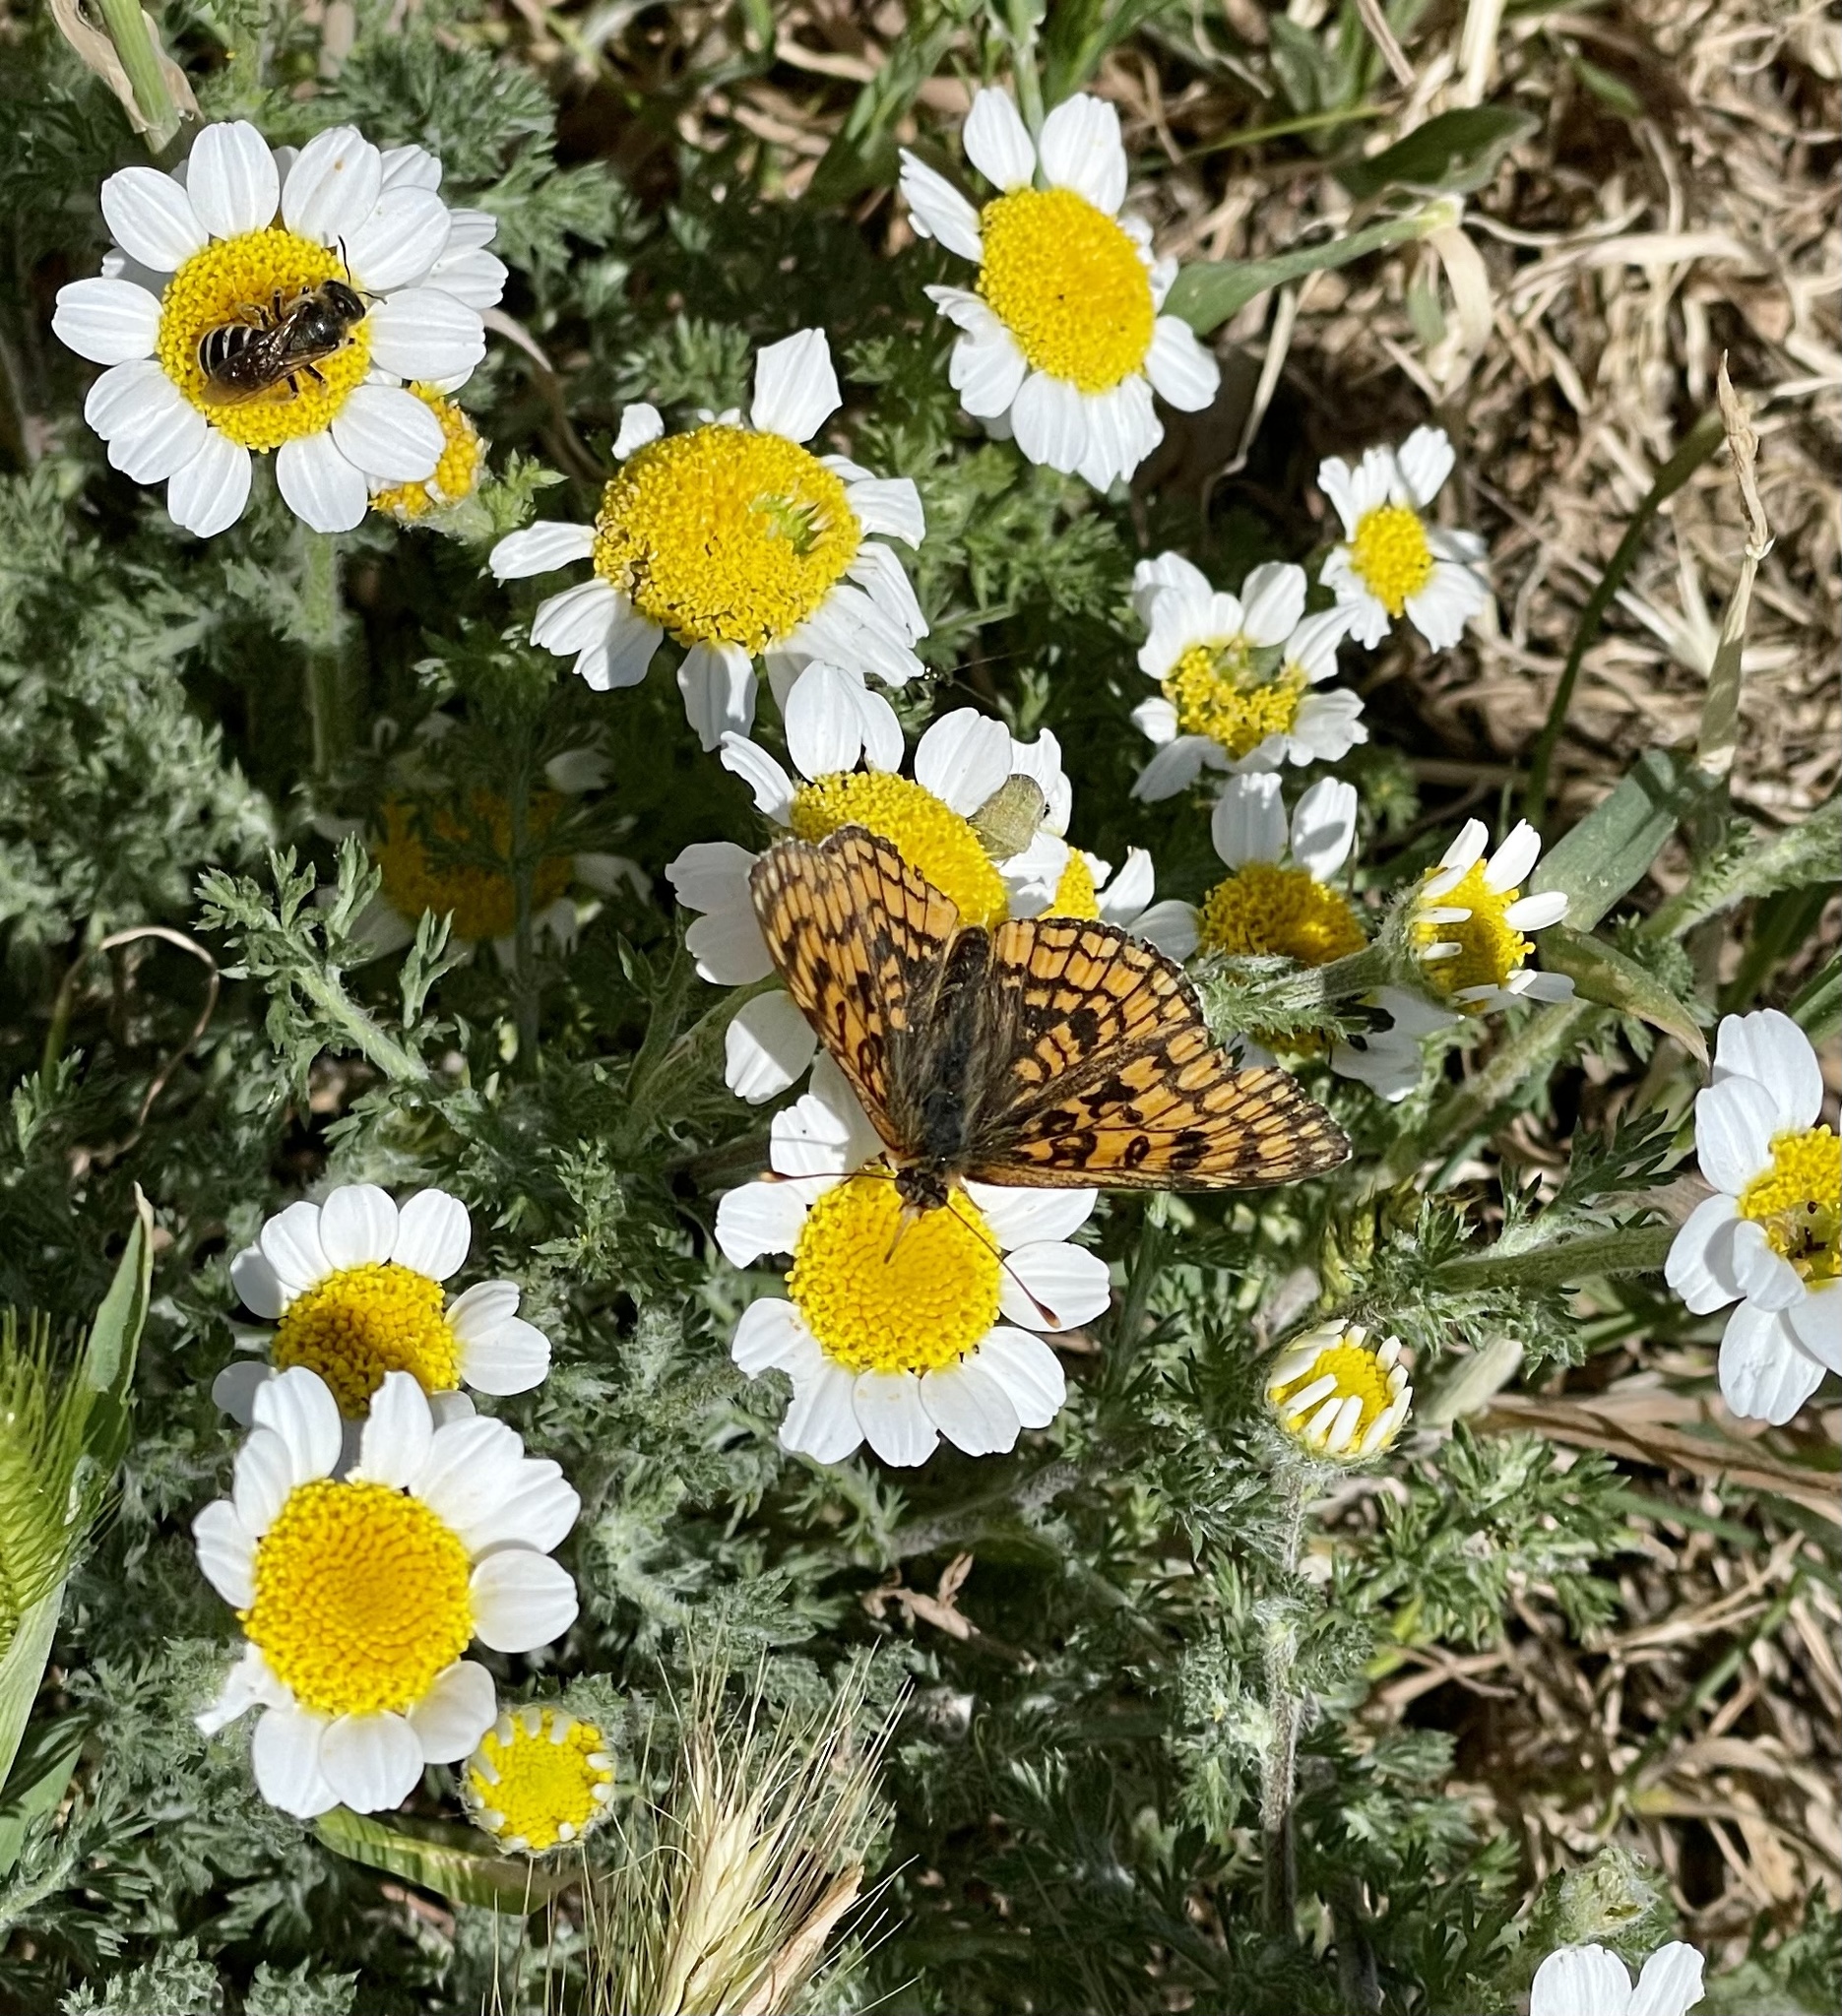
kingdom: Animalia
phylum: Arthropoda
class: Insecta
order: Lepidoptera
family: Nymphalidae
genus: Melitaea
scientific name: Melitaea deione
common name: Provençal fritillary
